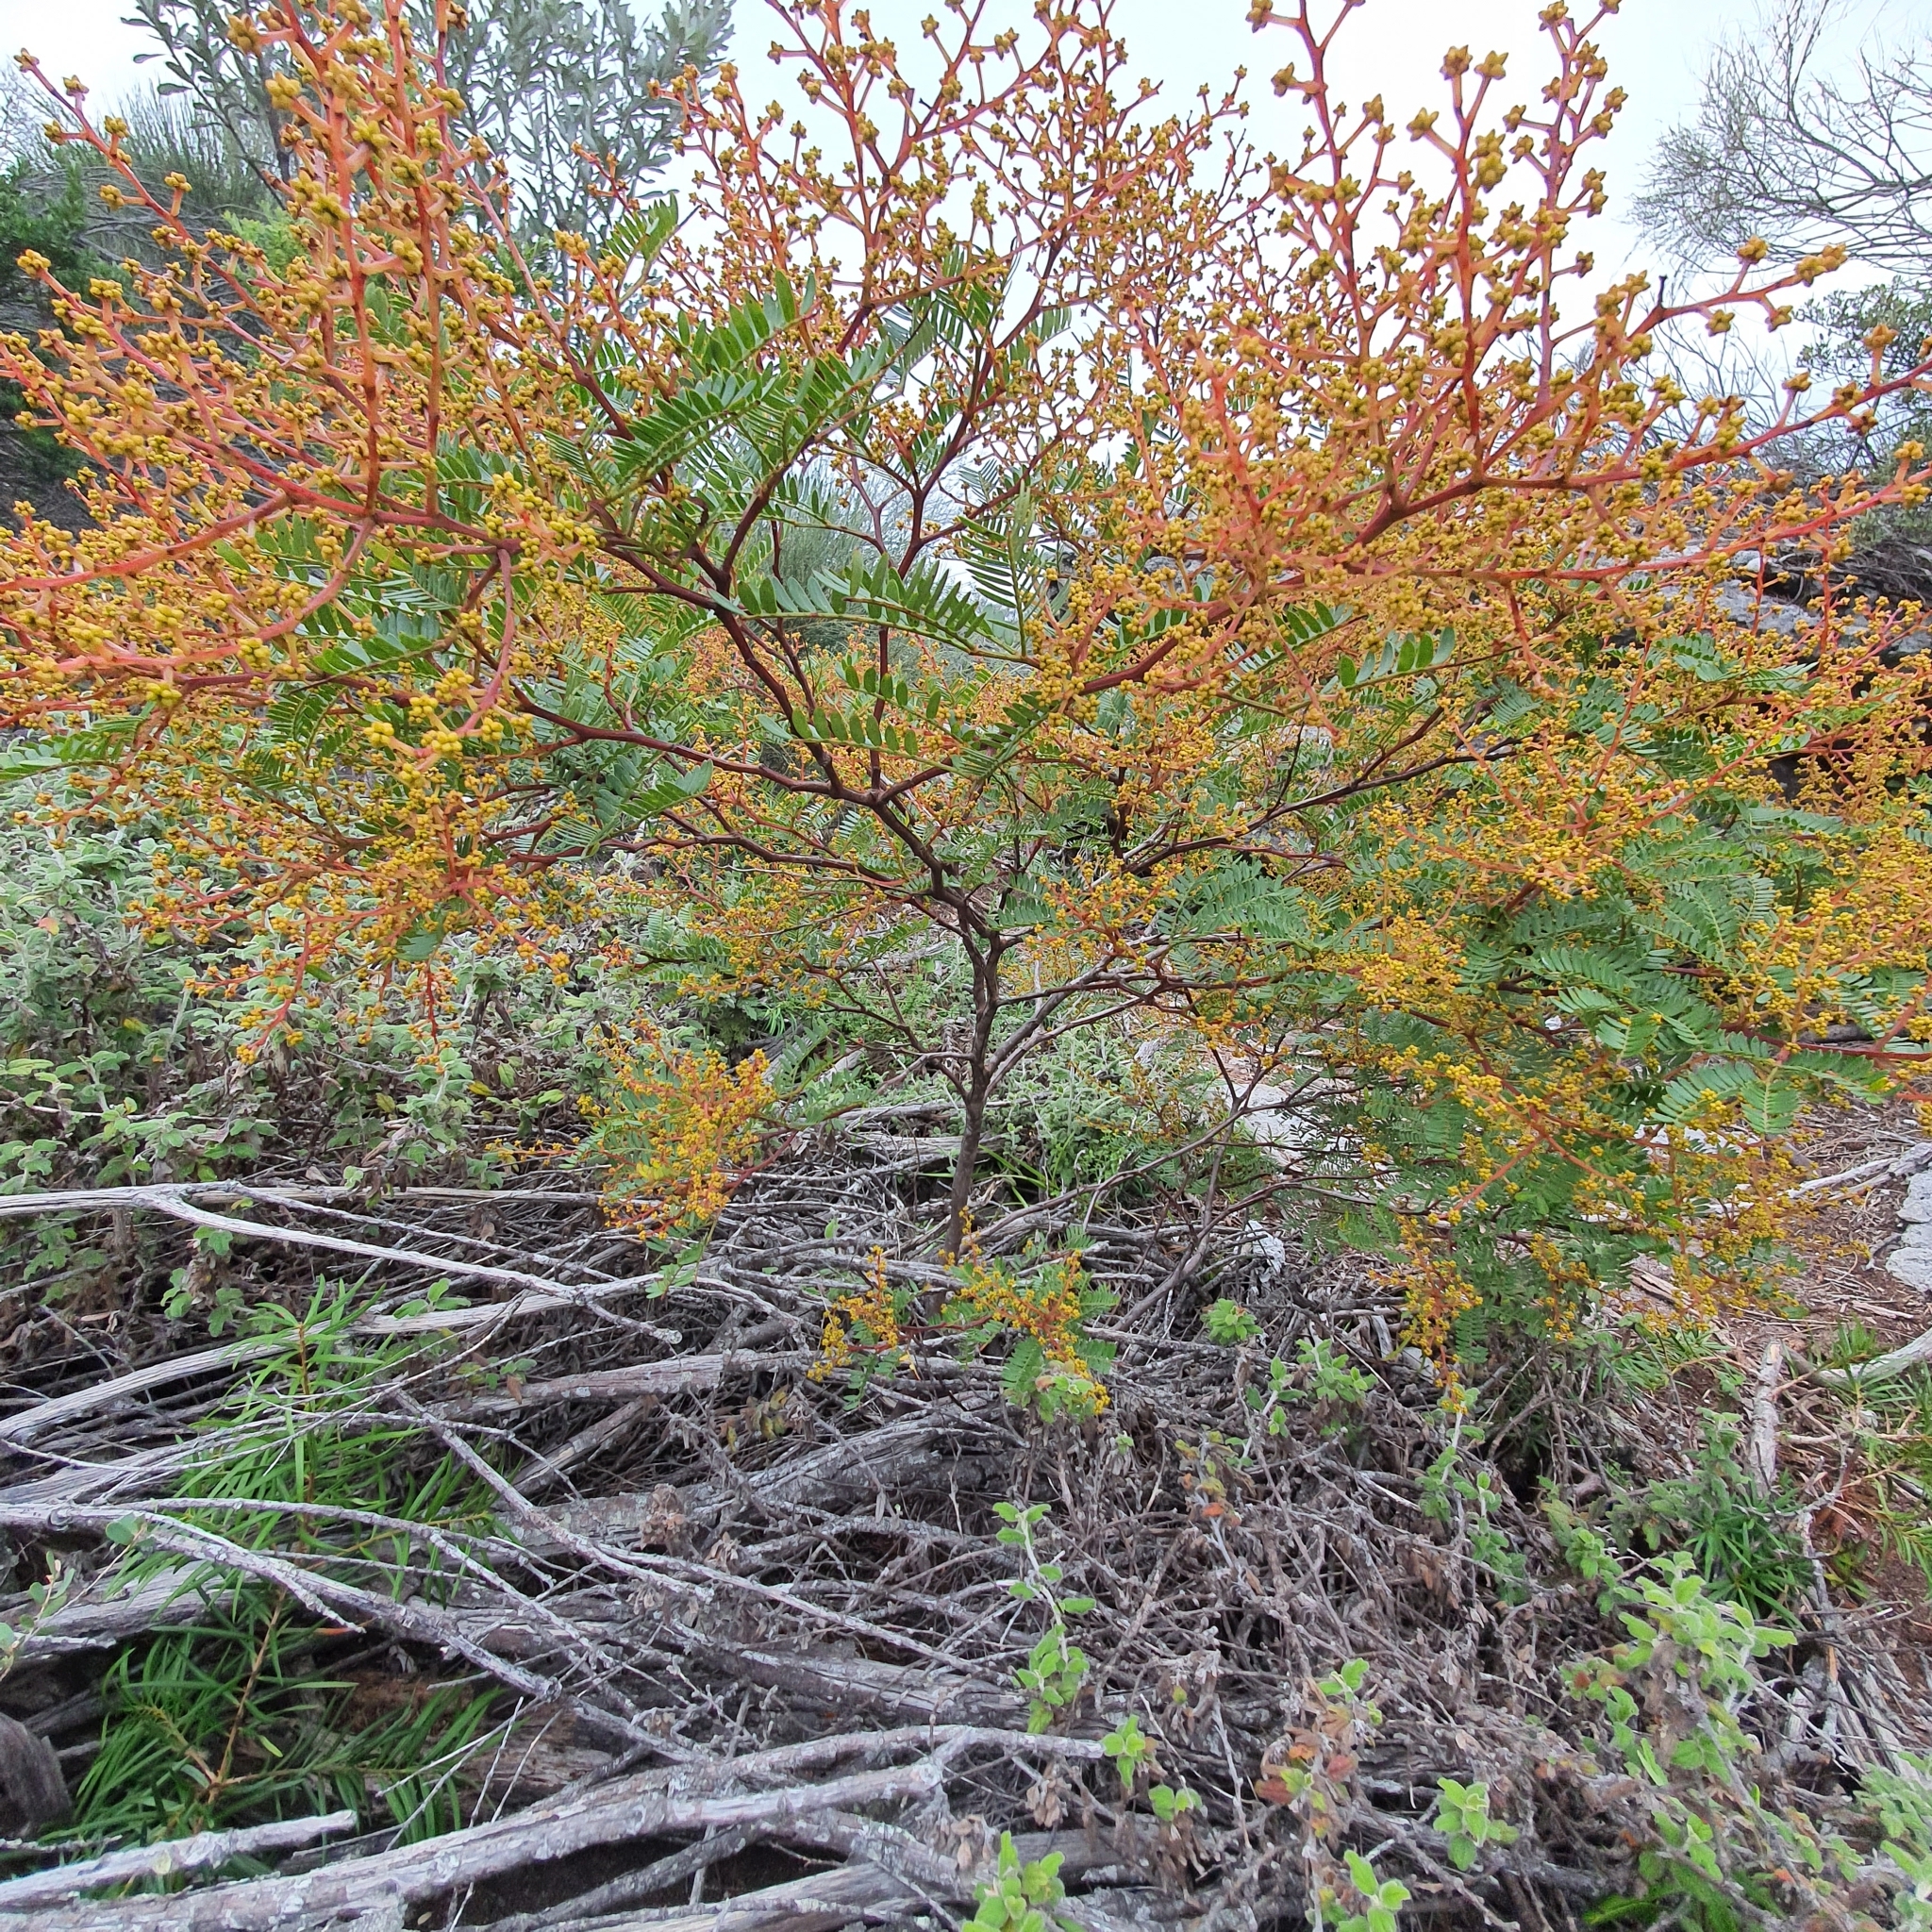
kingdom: Plantae
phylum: Tracheophyta
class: Magnoliopsida
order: Fabales
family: Fabaceae
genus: Acacia
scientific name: Acacia terminalis
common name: Cedar wattle
